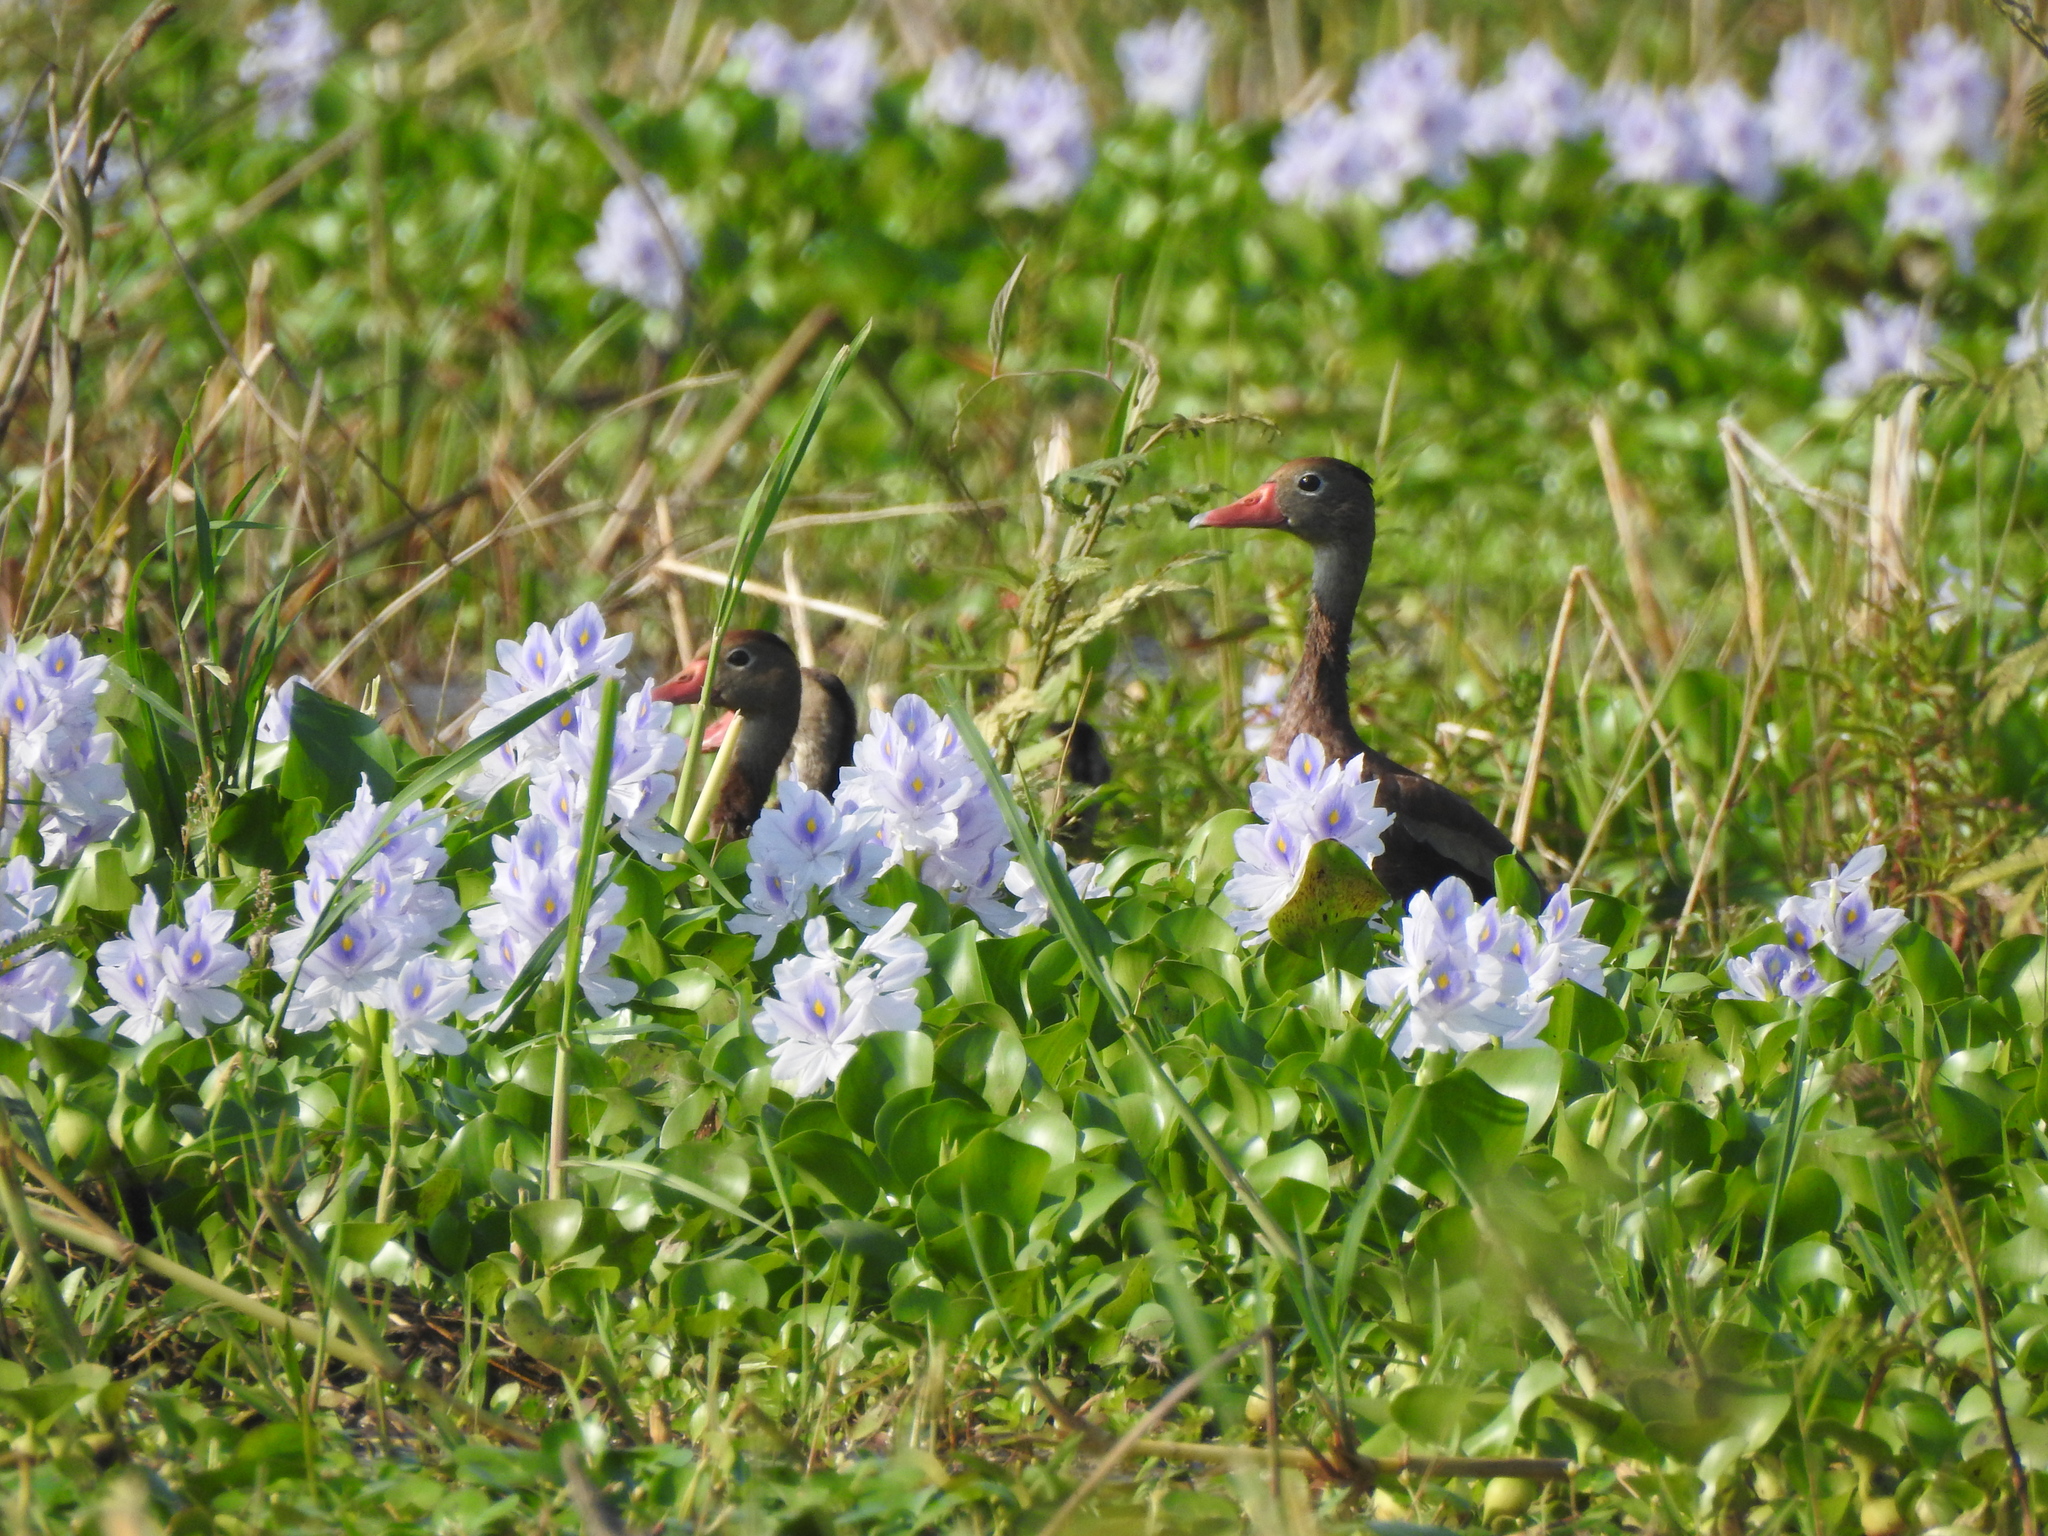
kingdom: Animalia
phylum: Chordata
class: Aves
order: Anseriformes
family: Anatidae
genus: Dendrocygna
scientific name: Dendrocygna autumnalis
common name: Black-bellied whistling duck
